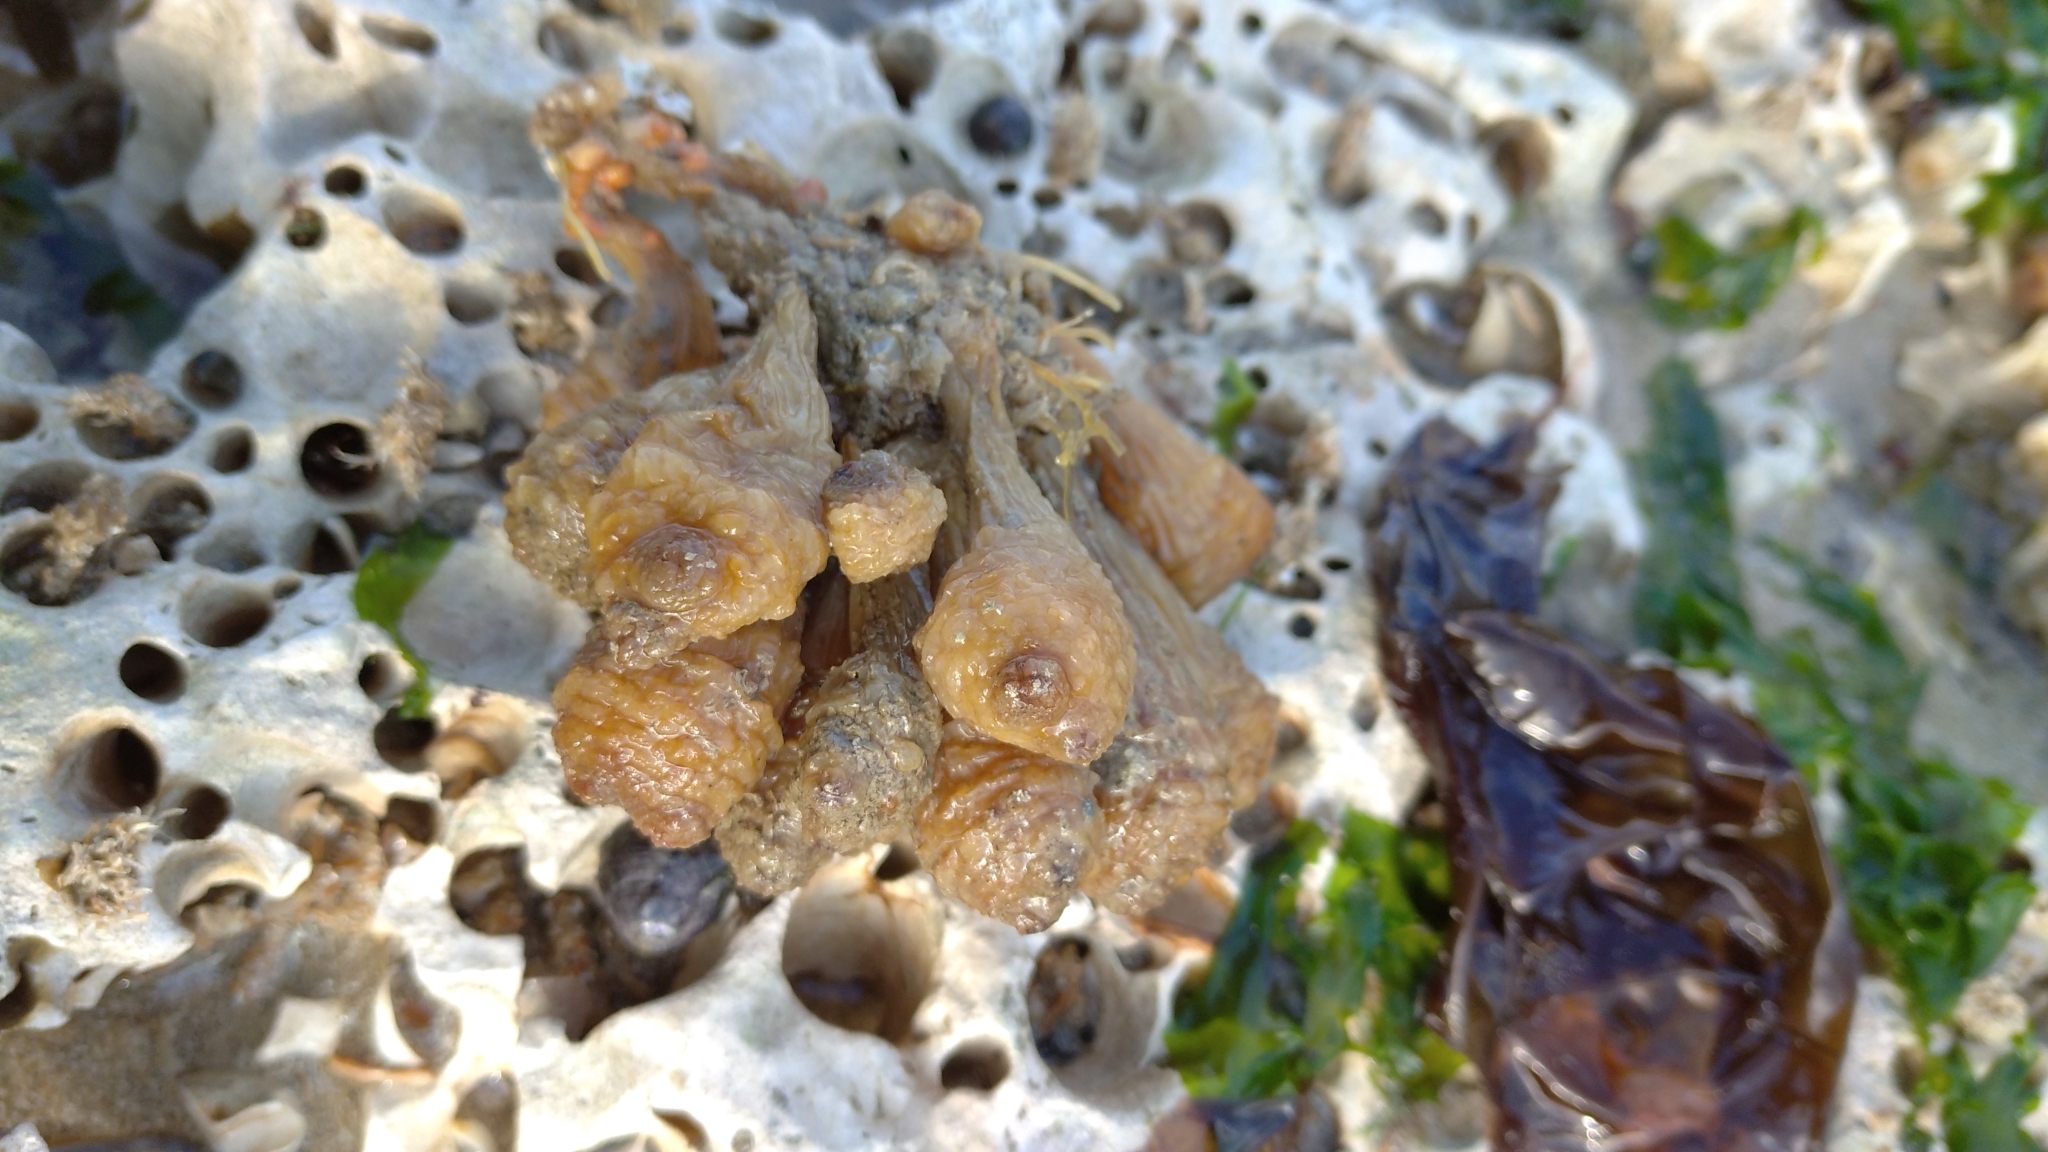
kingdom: Animalia
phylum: Chordata
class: Ascidiacea
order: Stolidobranchia
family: Styelidae
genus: Styela
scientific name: Styela clava
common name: Leathery sea squirt
